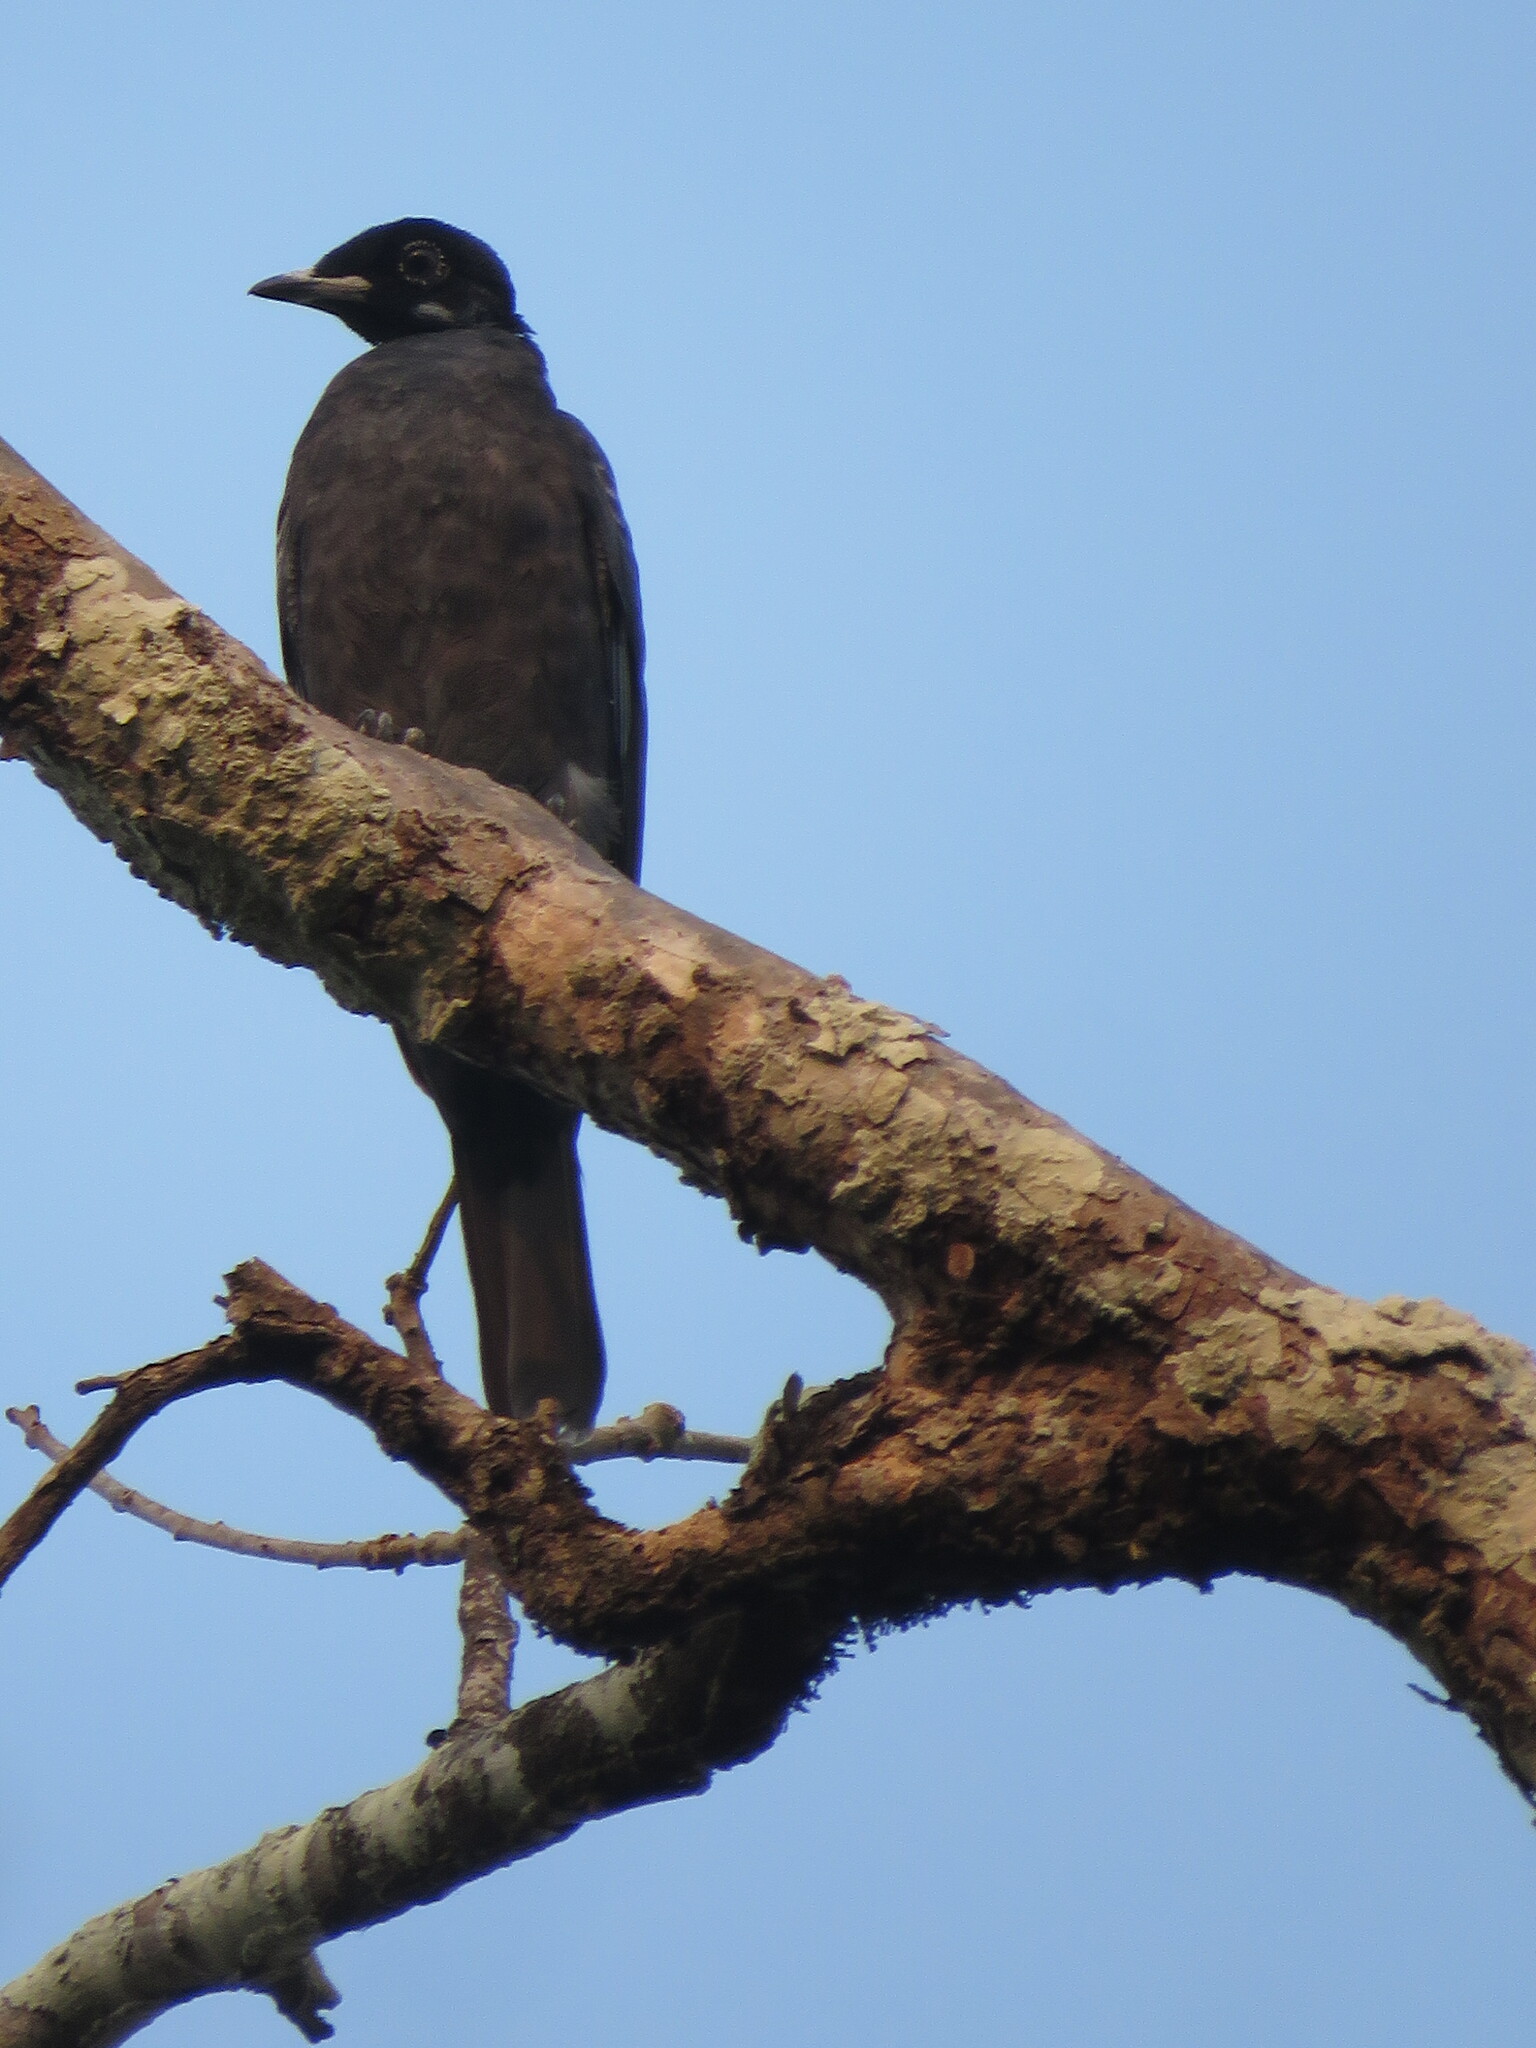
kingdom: Animalia
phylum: Chordata
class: Aves
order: Passeriformes
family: Cotingidae
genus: Gymnoderus
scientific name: Gymnoderus foetidus
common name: Bare-necked fruitcrow
